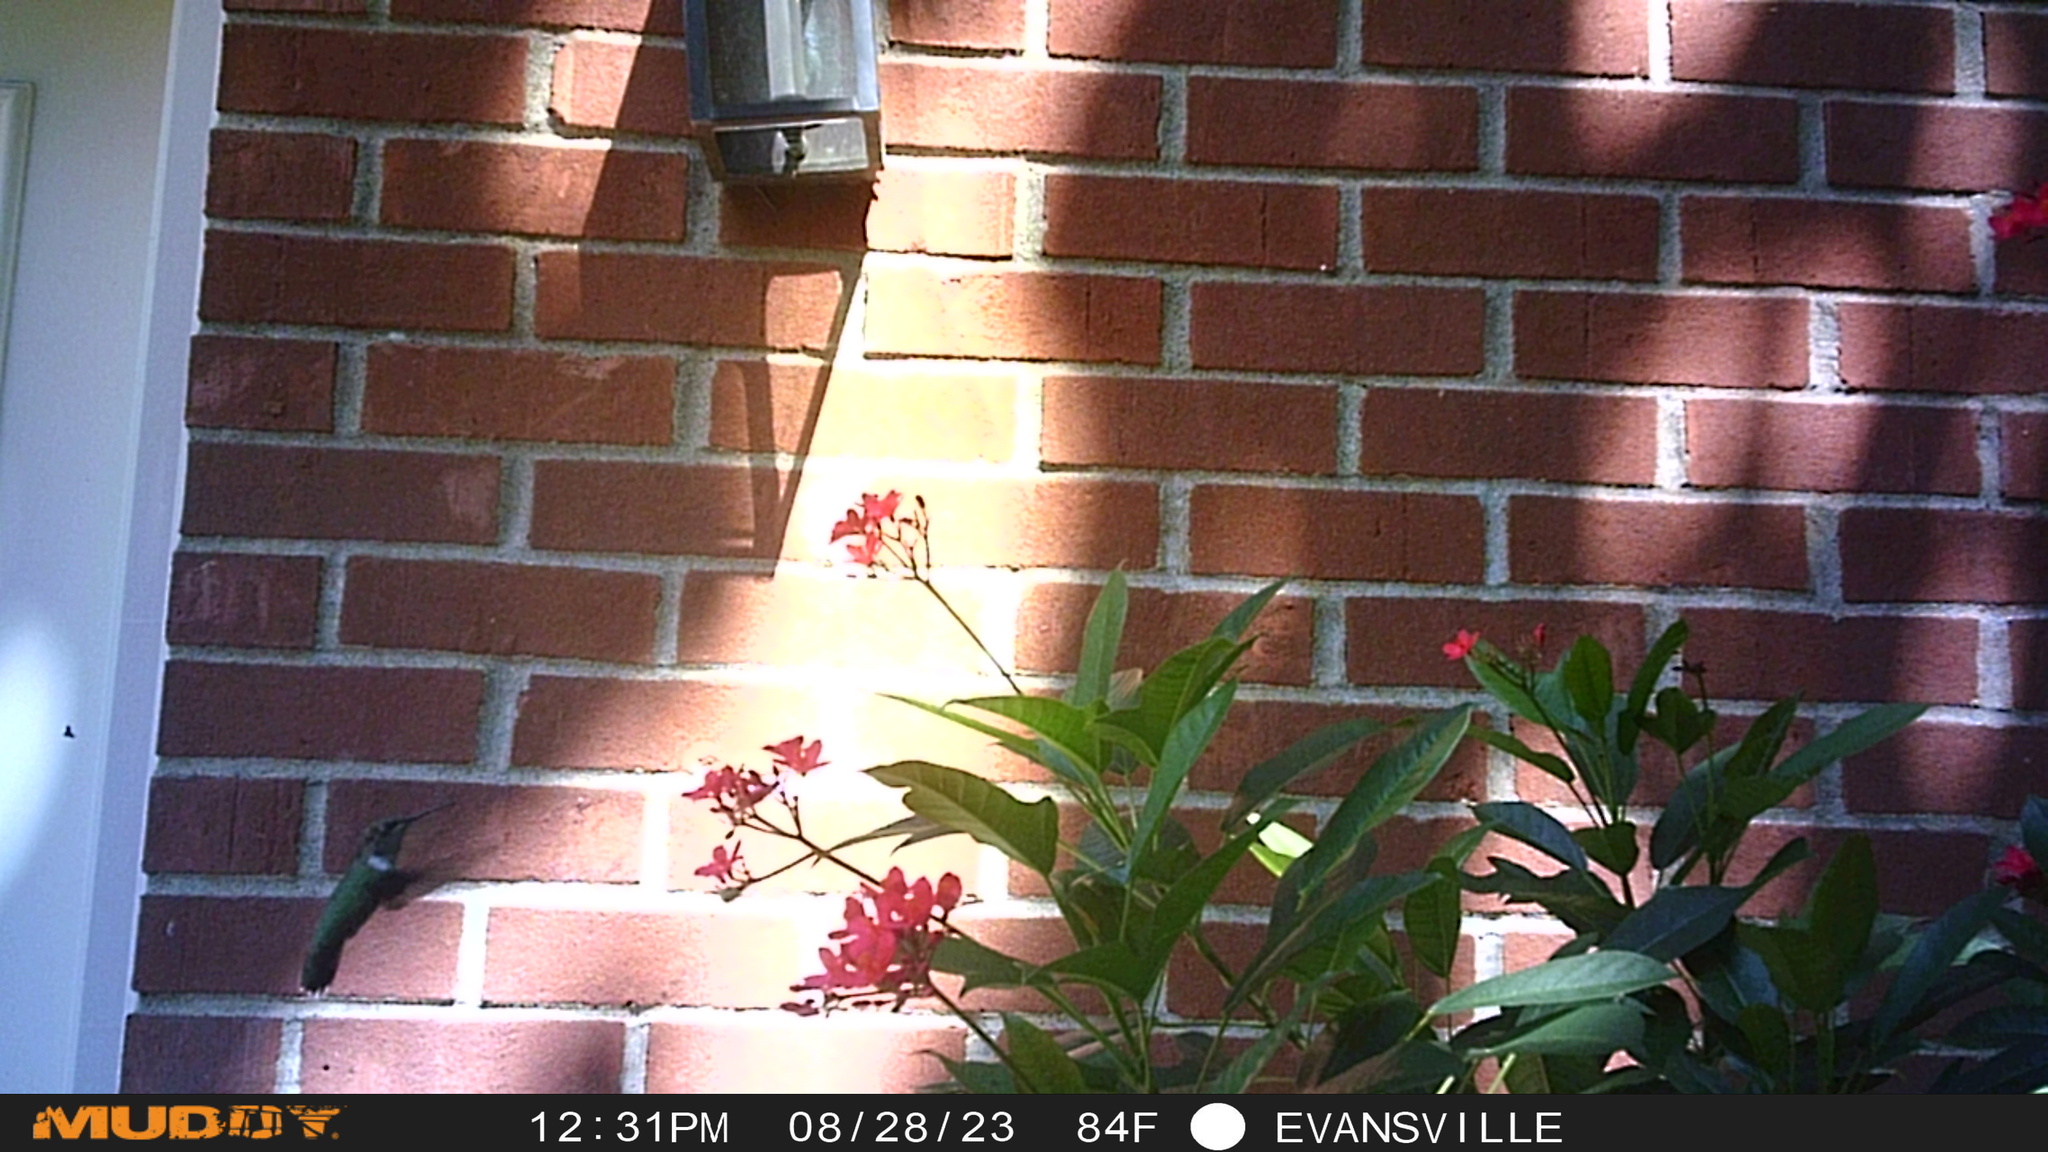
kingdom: Animalia
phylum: Chordata
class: Aves
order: Apodiformes
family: Trochilidae
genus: Archilochus
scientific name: Archilochus colubris
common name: Ruby-throated hummingbird
